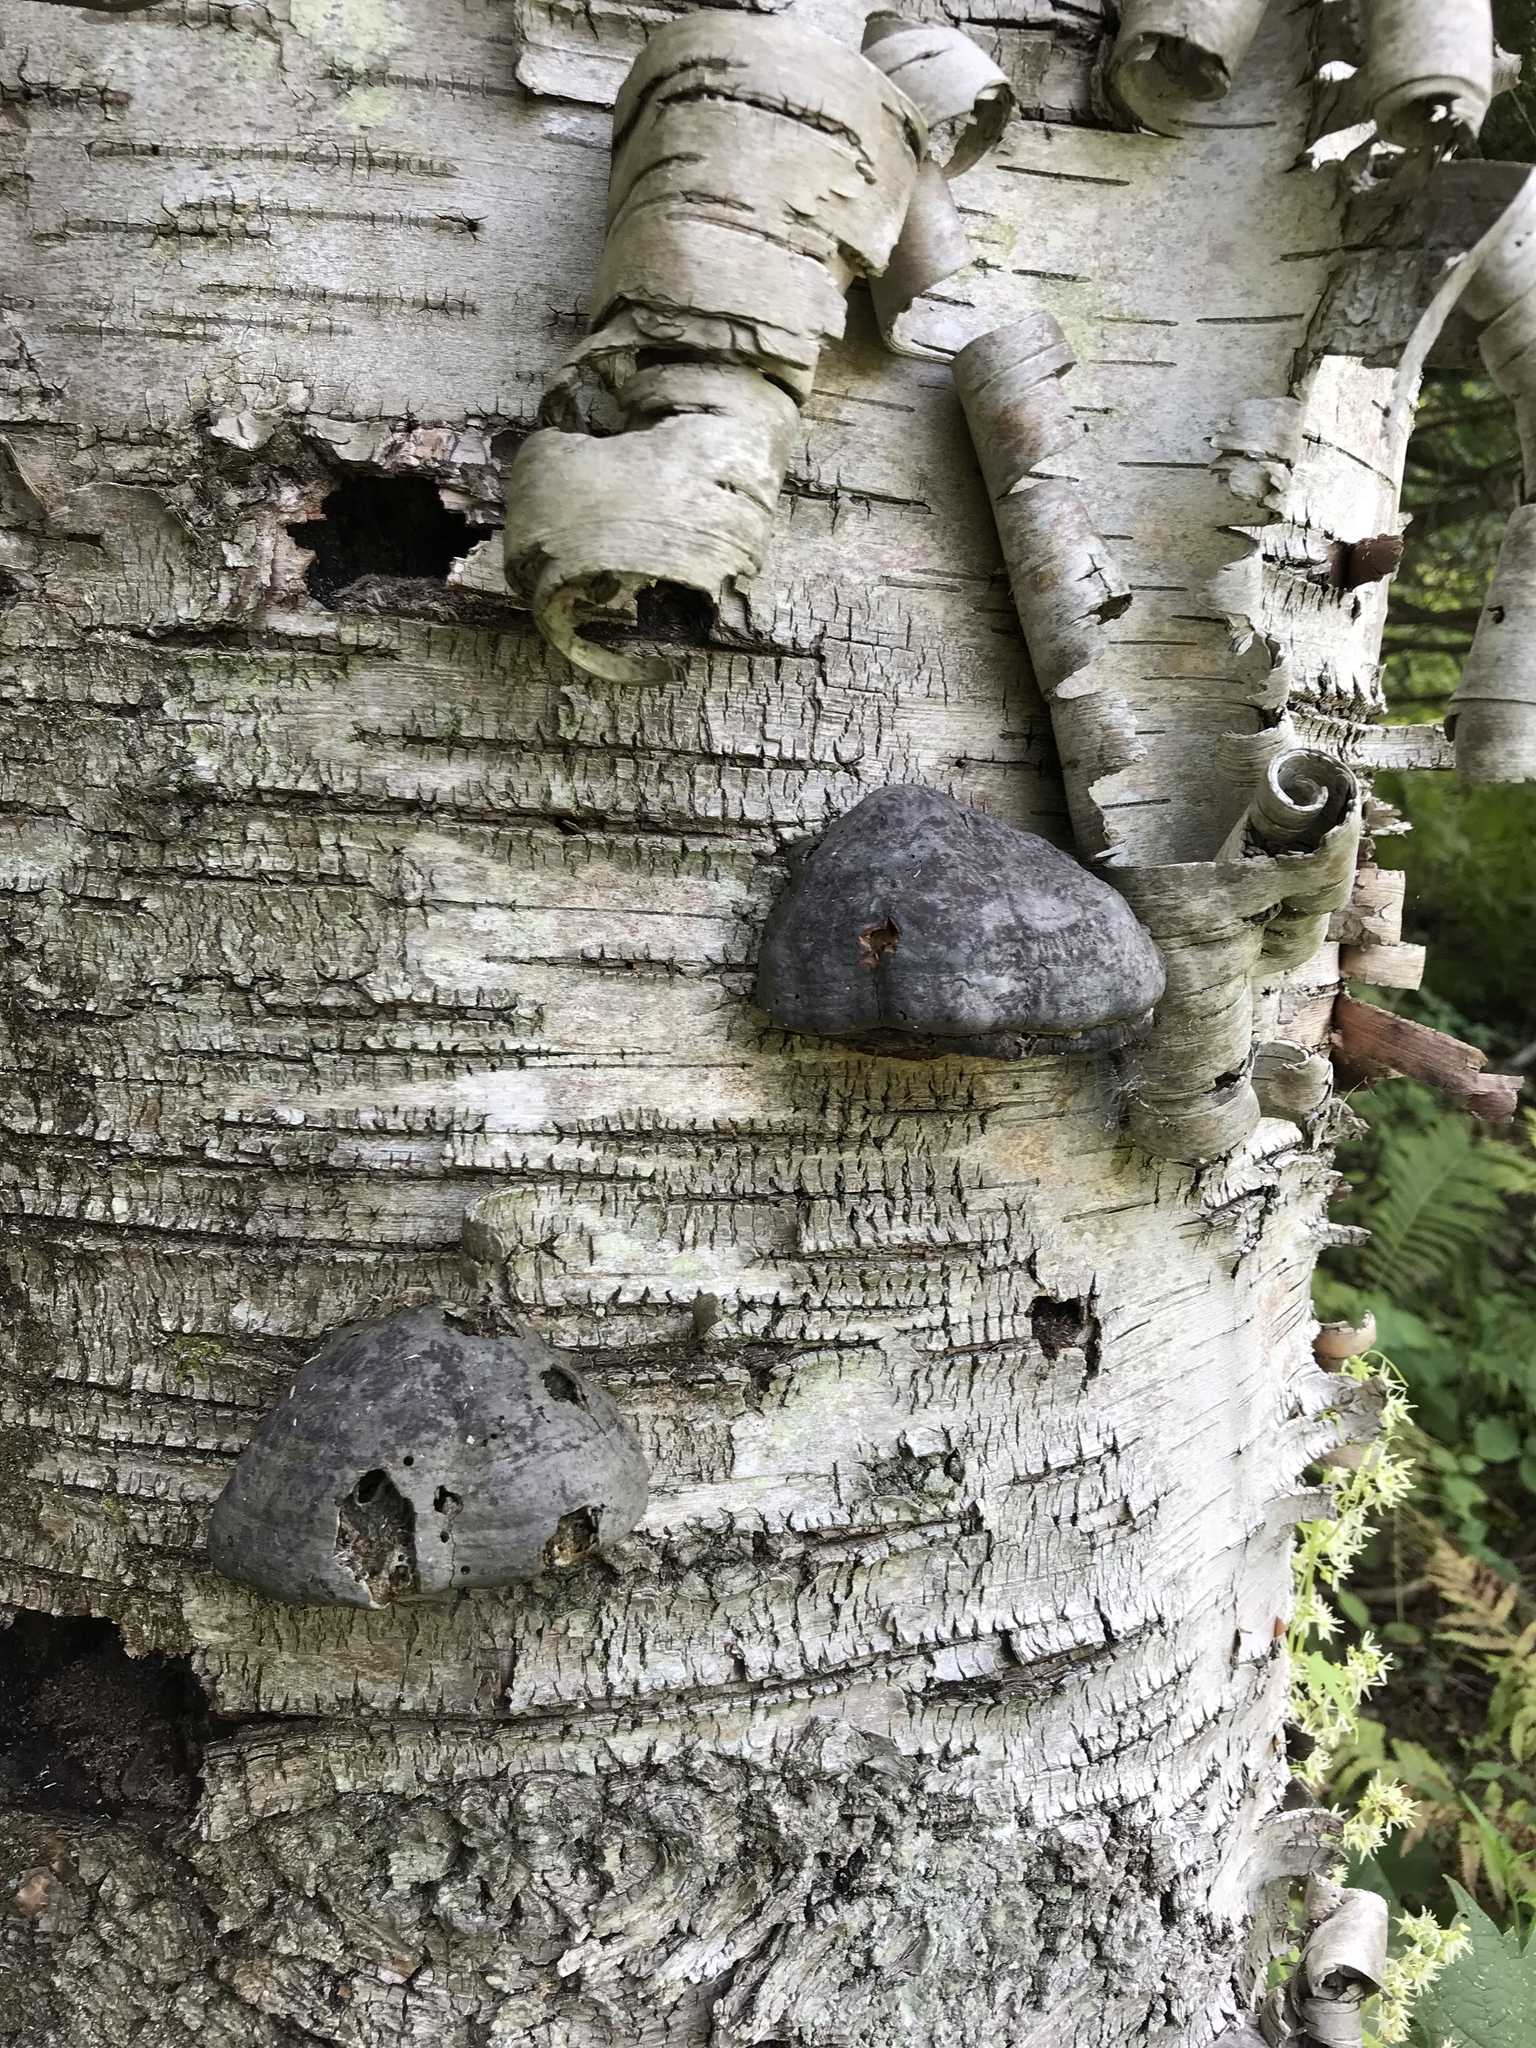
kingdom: Fungi
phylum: Basidiomycota
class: Agaricomycetes
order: Polyporales
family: Polyporaceae
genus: Fomes
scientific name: Fomes fomentarius
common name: Hoof fungus
